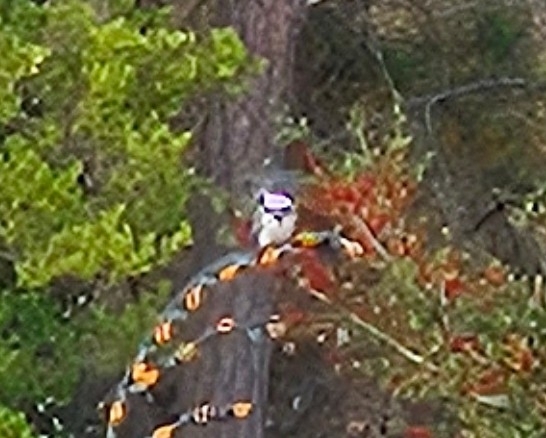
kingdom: Animalia
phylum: Chordata
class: Aves
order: Coraciiformes
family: Alcedinidae
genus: Megaceryle
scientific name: Megaceryle alcyon
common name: Belted kingfisher
